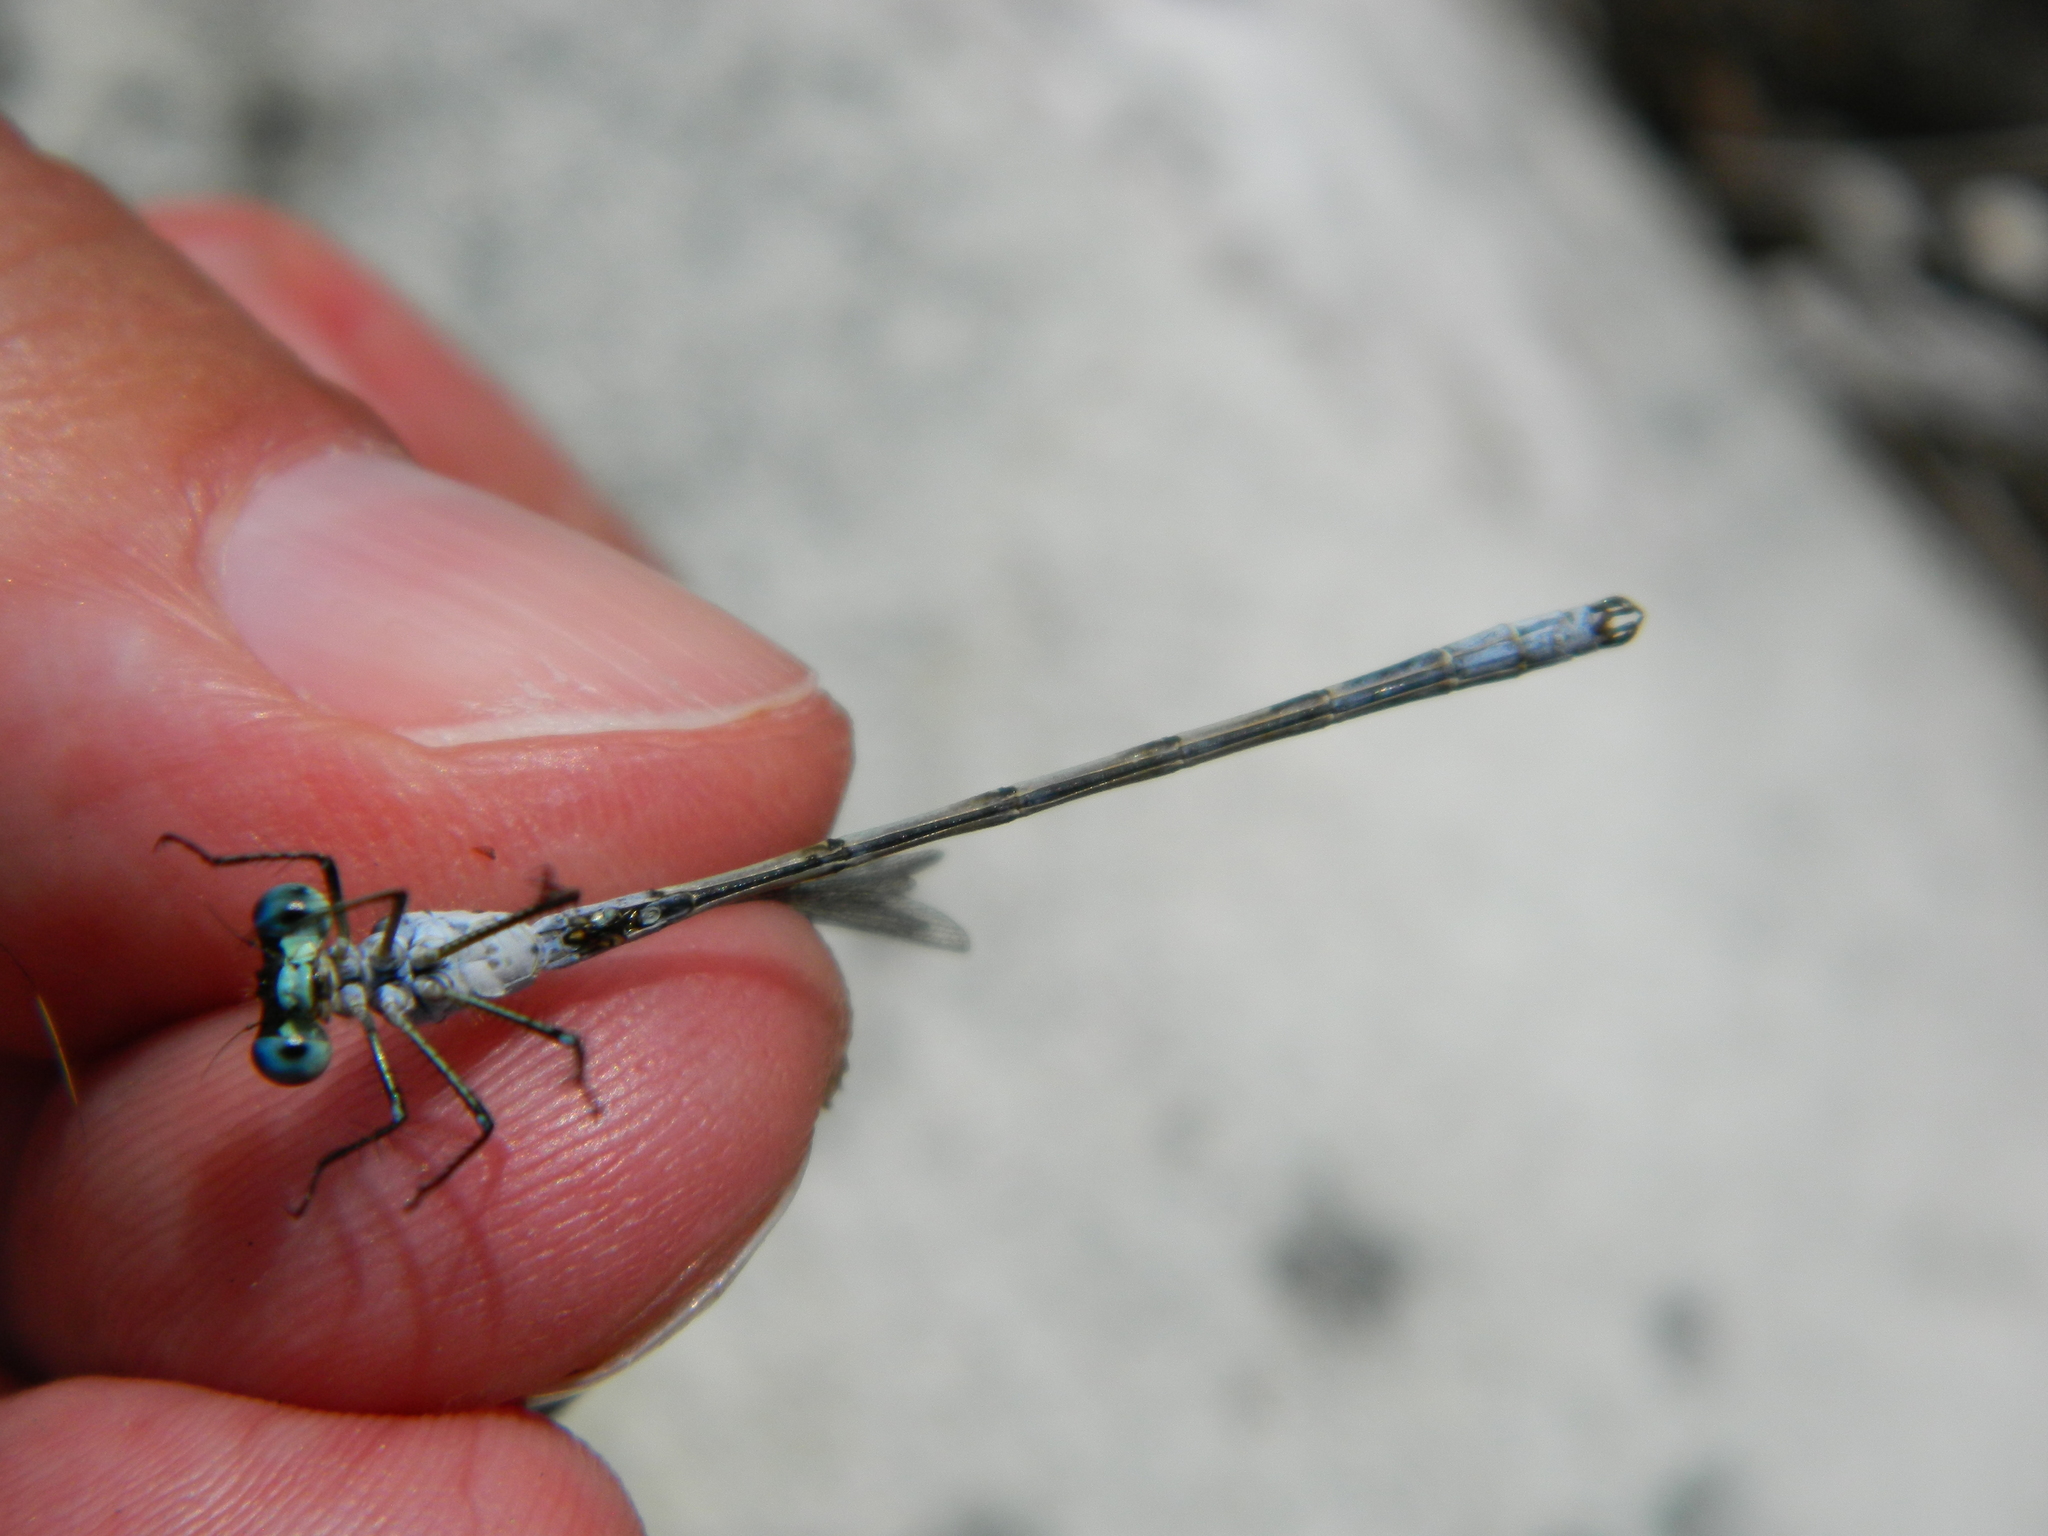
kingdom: Animalia
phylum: Arthropoda
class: Insecta
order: Odonata
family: Lestidae
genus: Lestes
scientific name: Lestes disjunctus
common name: Northern spreadwing
